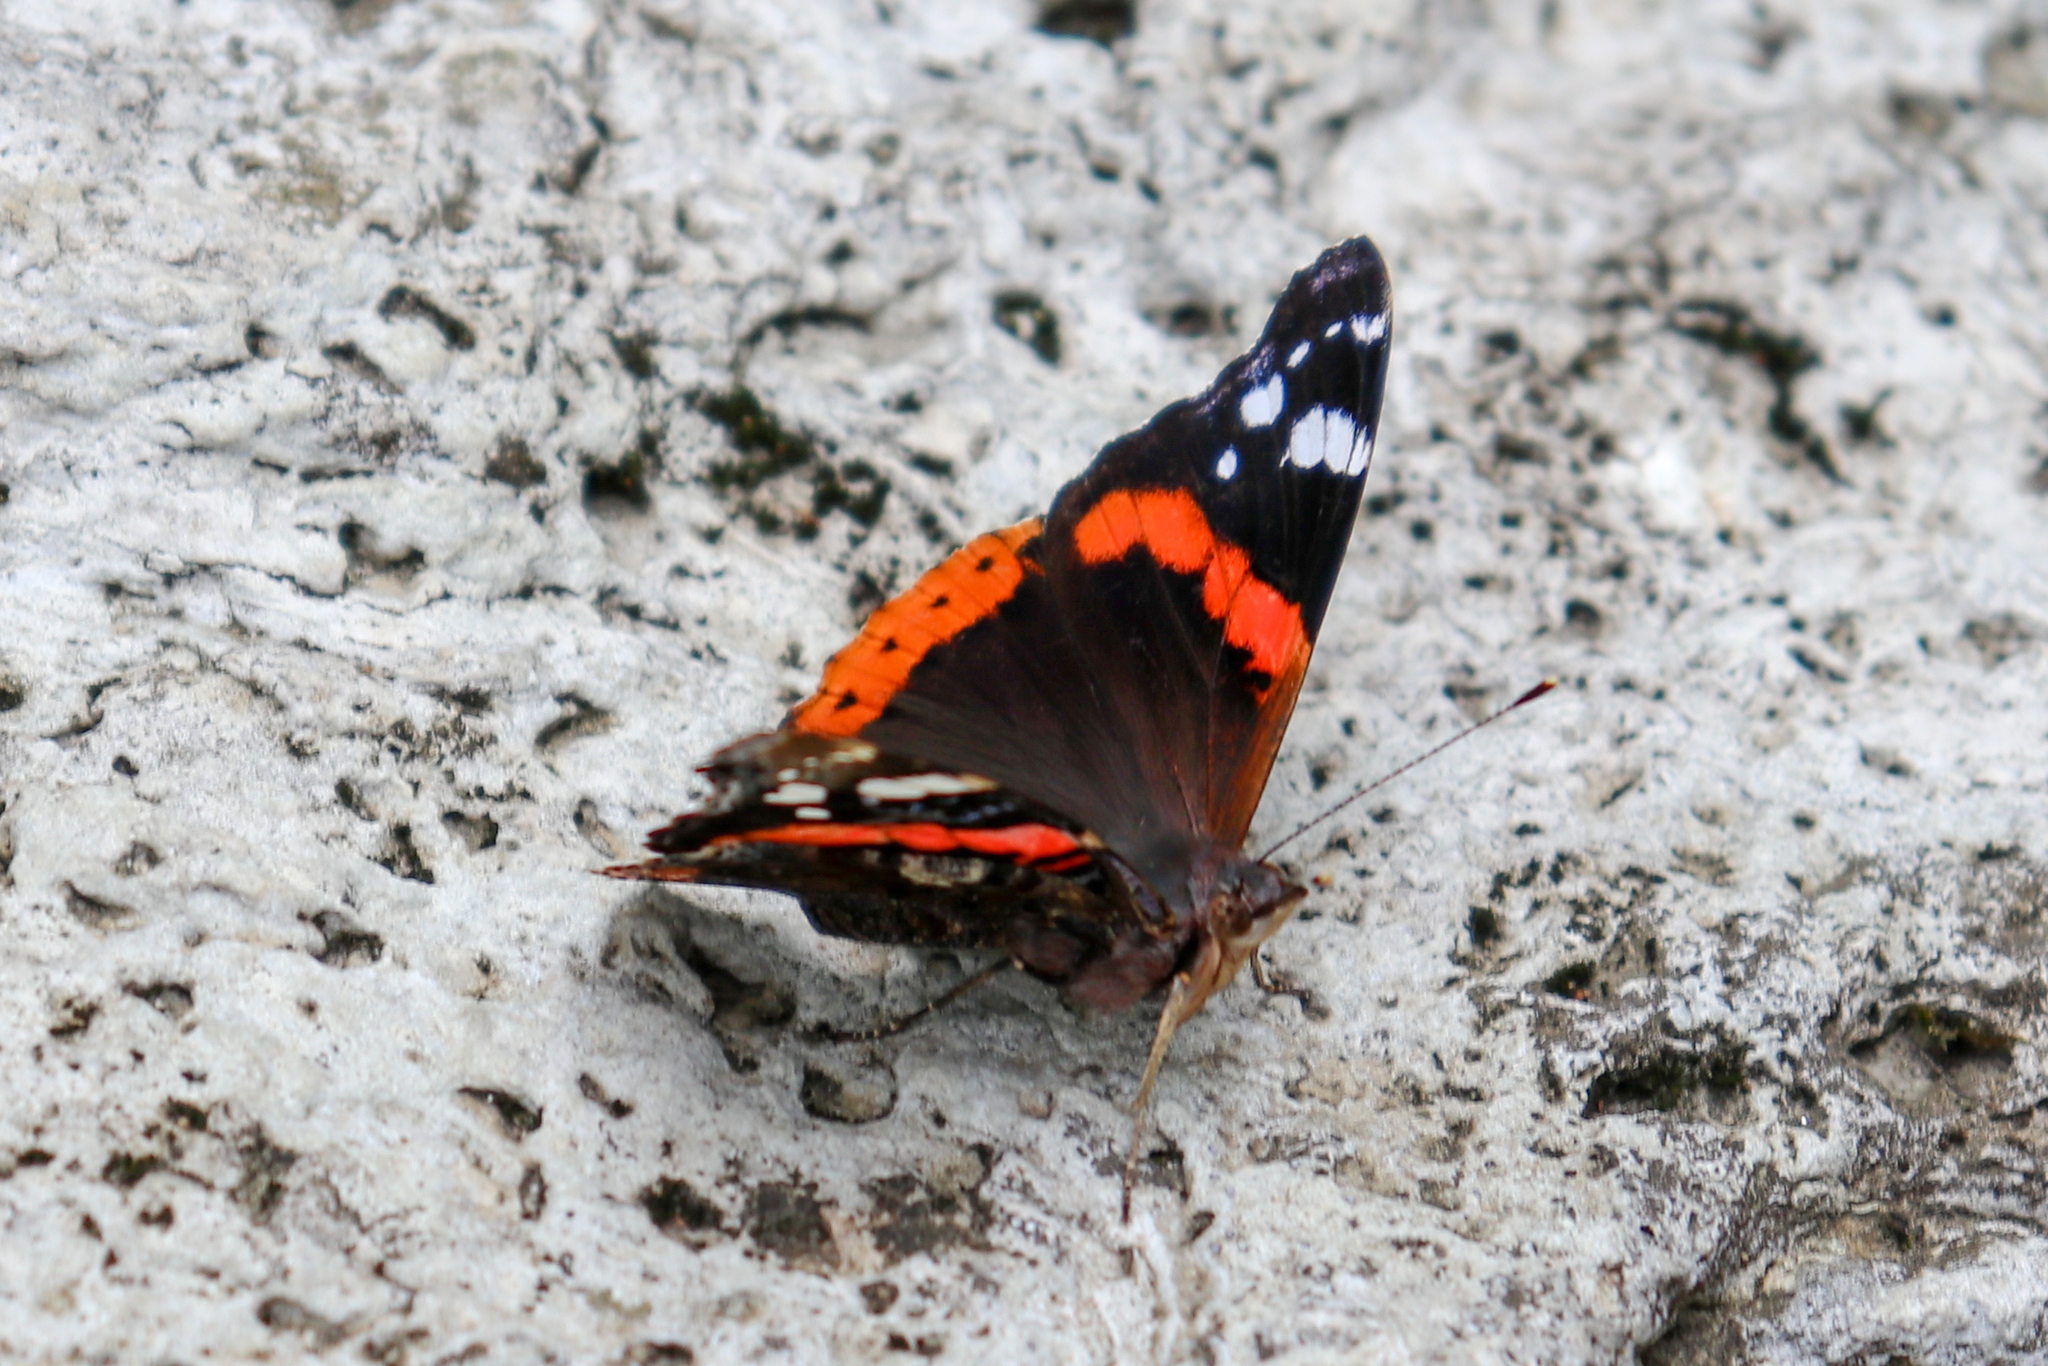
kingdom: Animalia
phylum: Arthropoda
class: Insecta
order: Lepidoptera
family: Nymphalidae
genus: Vanessa
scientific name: Vanessa atalanta
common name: Red admiral
